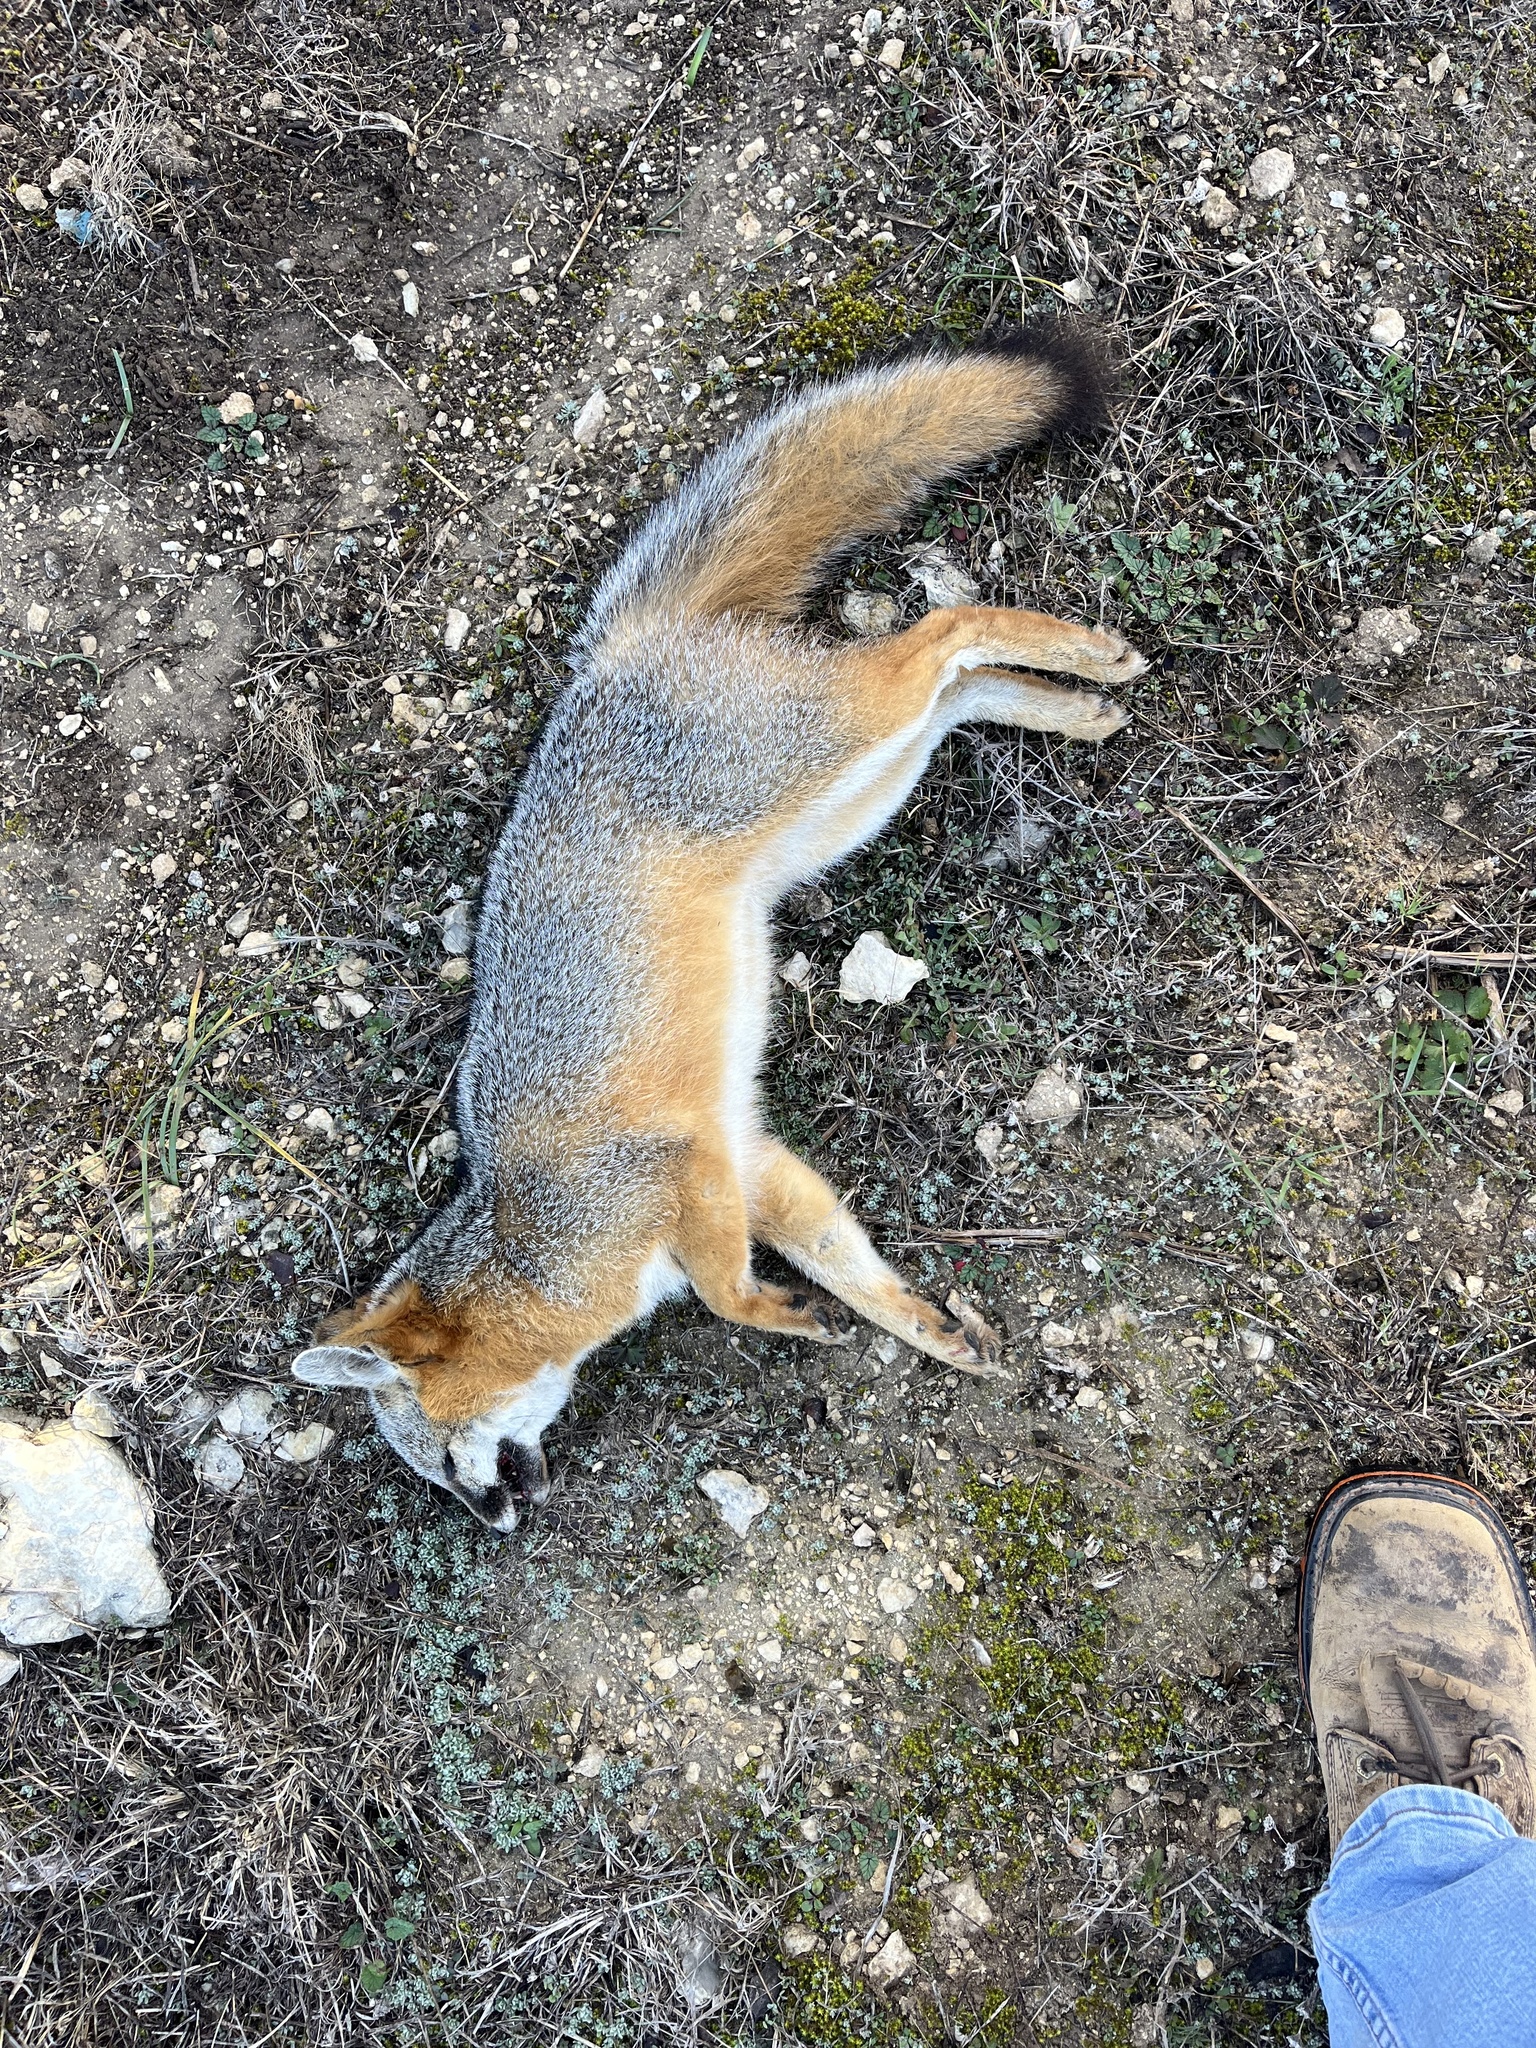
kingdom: Animalia
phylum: Chordata
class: Mammalia
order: Carnivora
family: Canidae
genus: Urocyon
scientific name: Urocyon cinereoargenteus
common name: Gray fox
